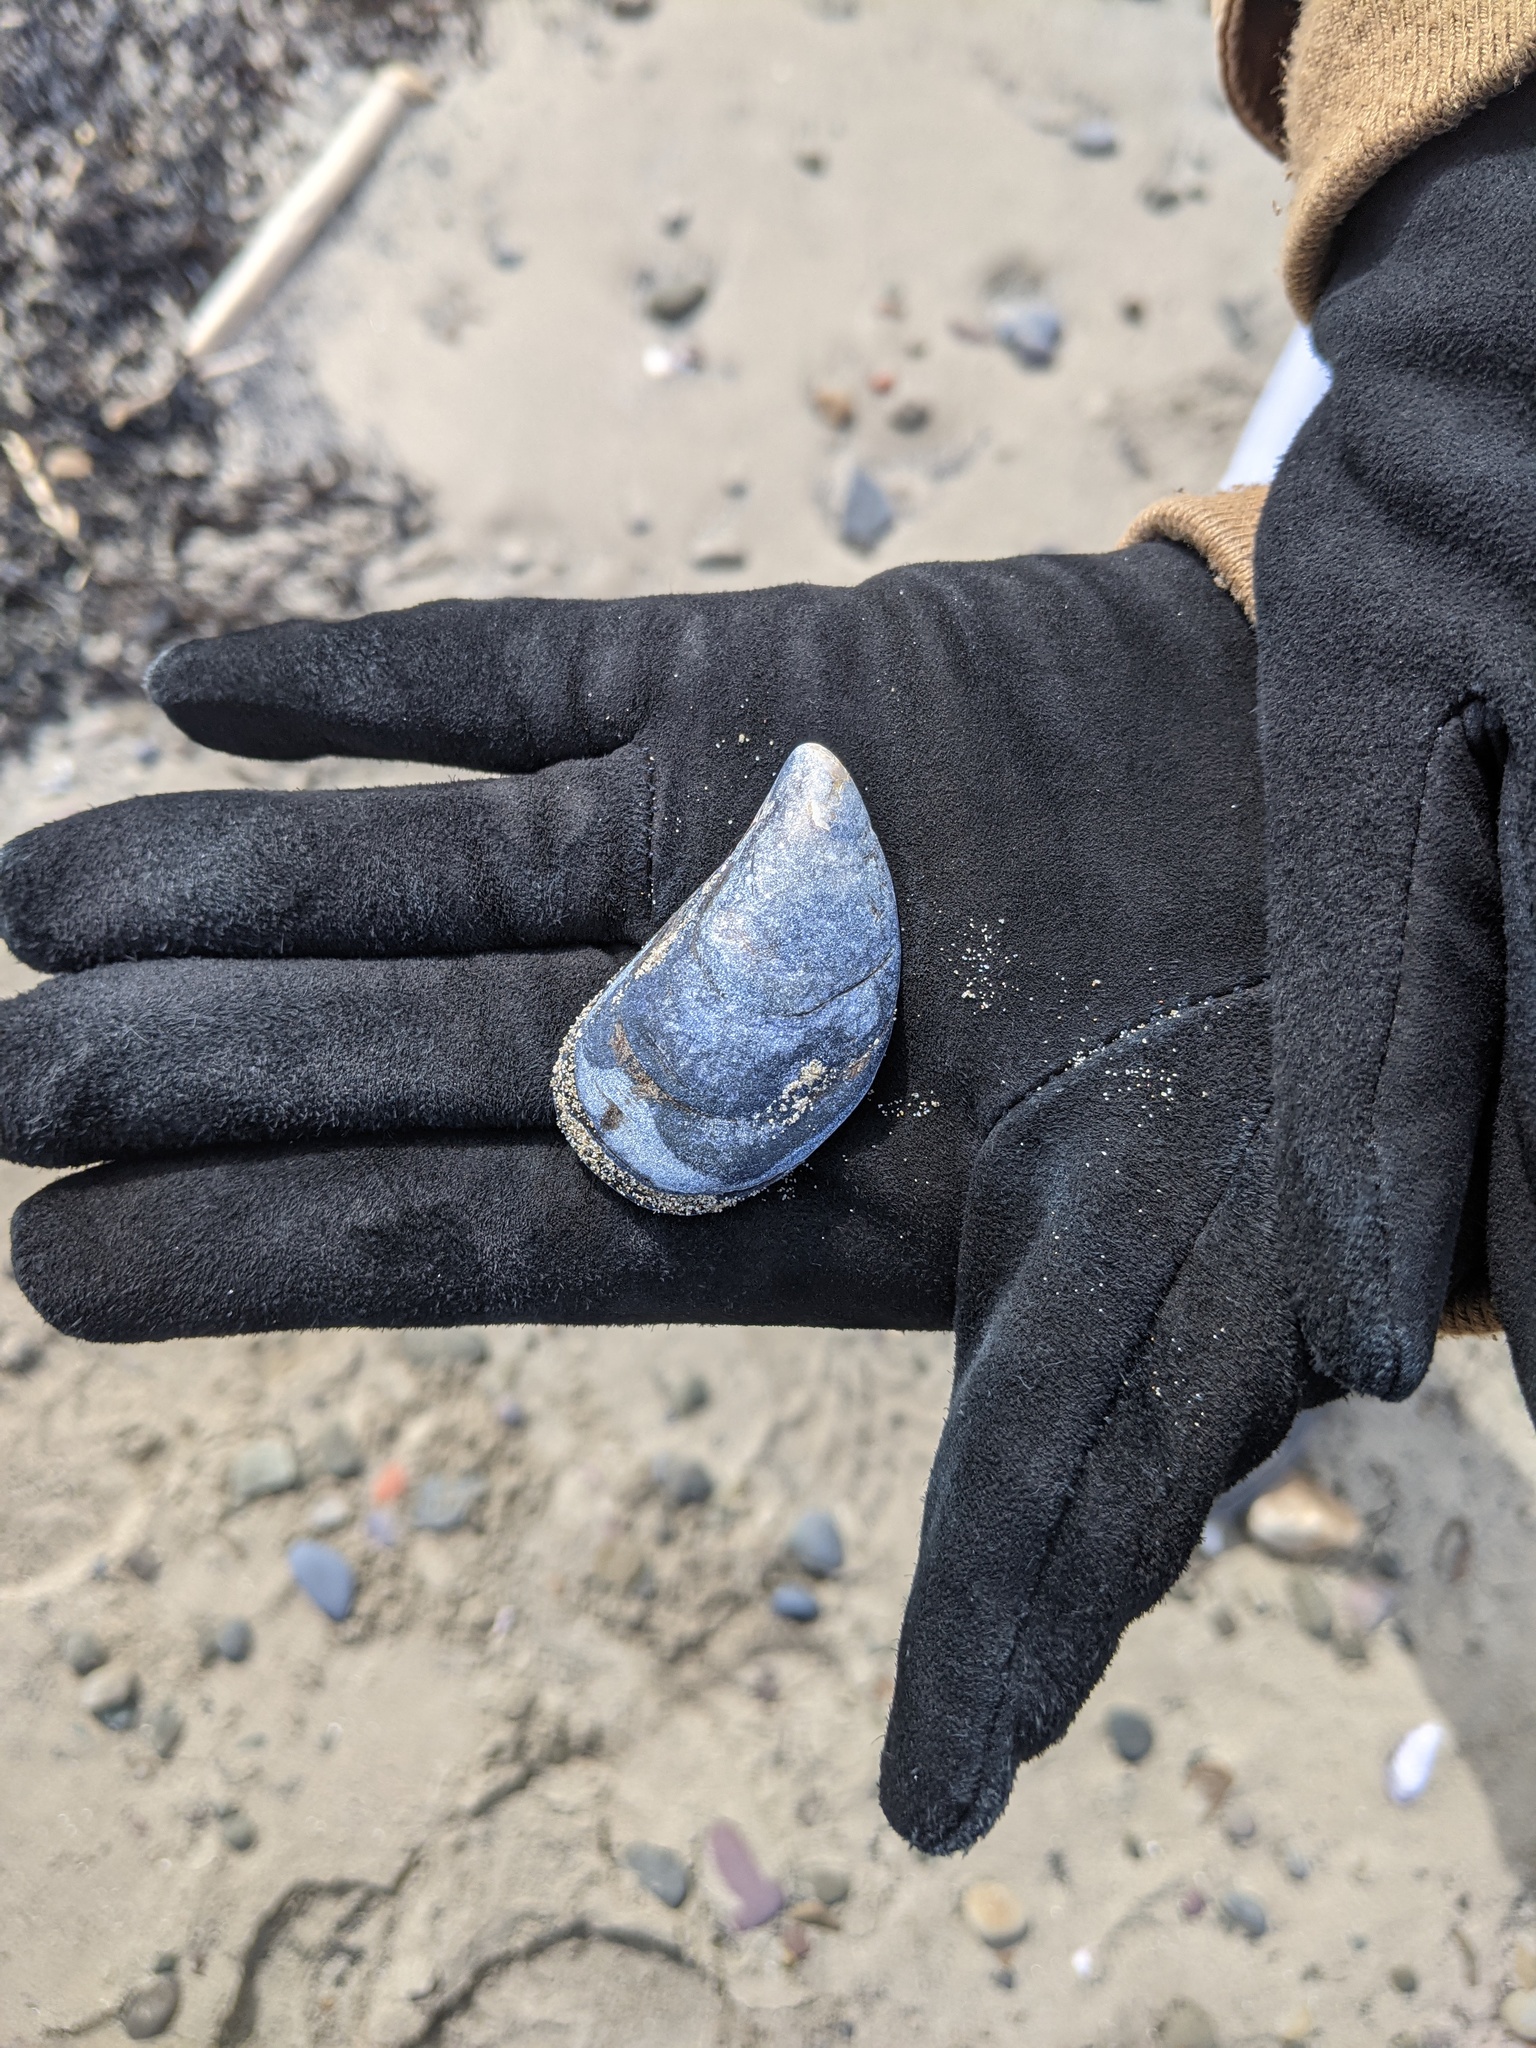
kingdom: Animalia
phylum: Mollusca
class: Bivalvia
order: Mytilida
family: Mytilidae
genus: Mytilus
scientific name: Mytilus edulis
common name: Blue mussel
